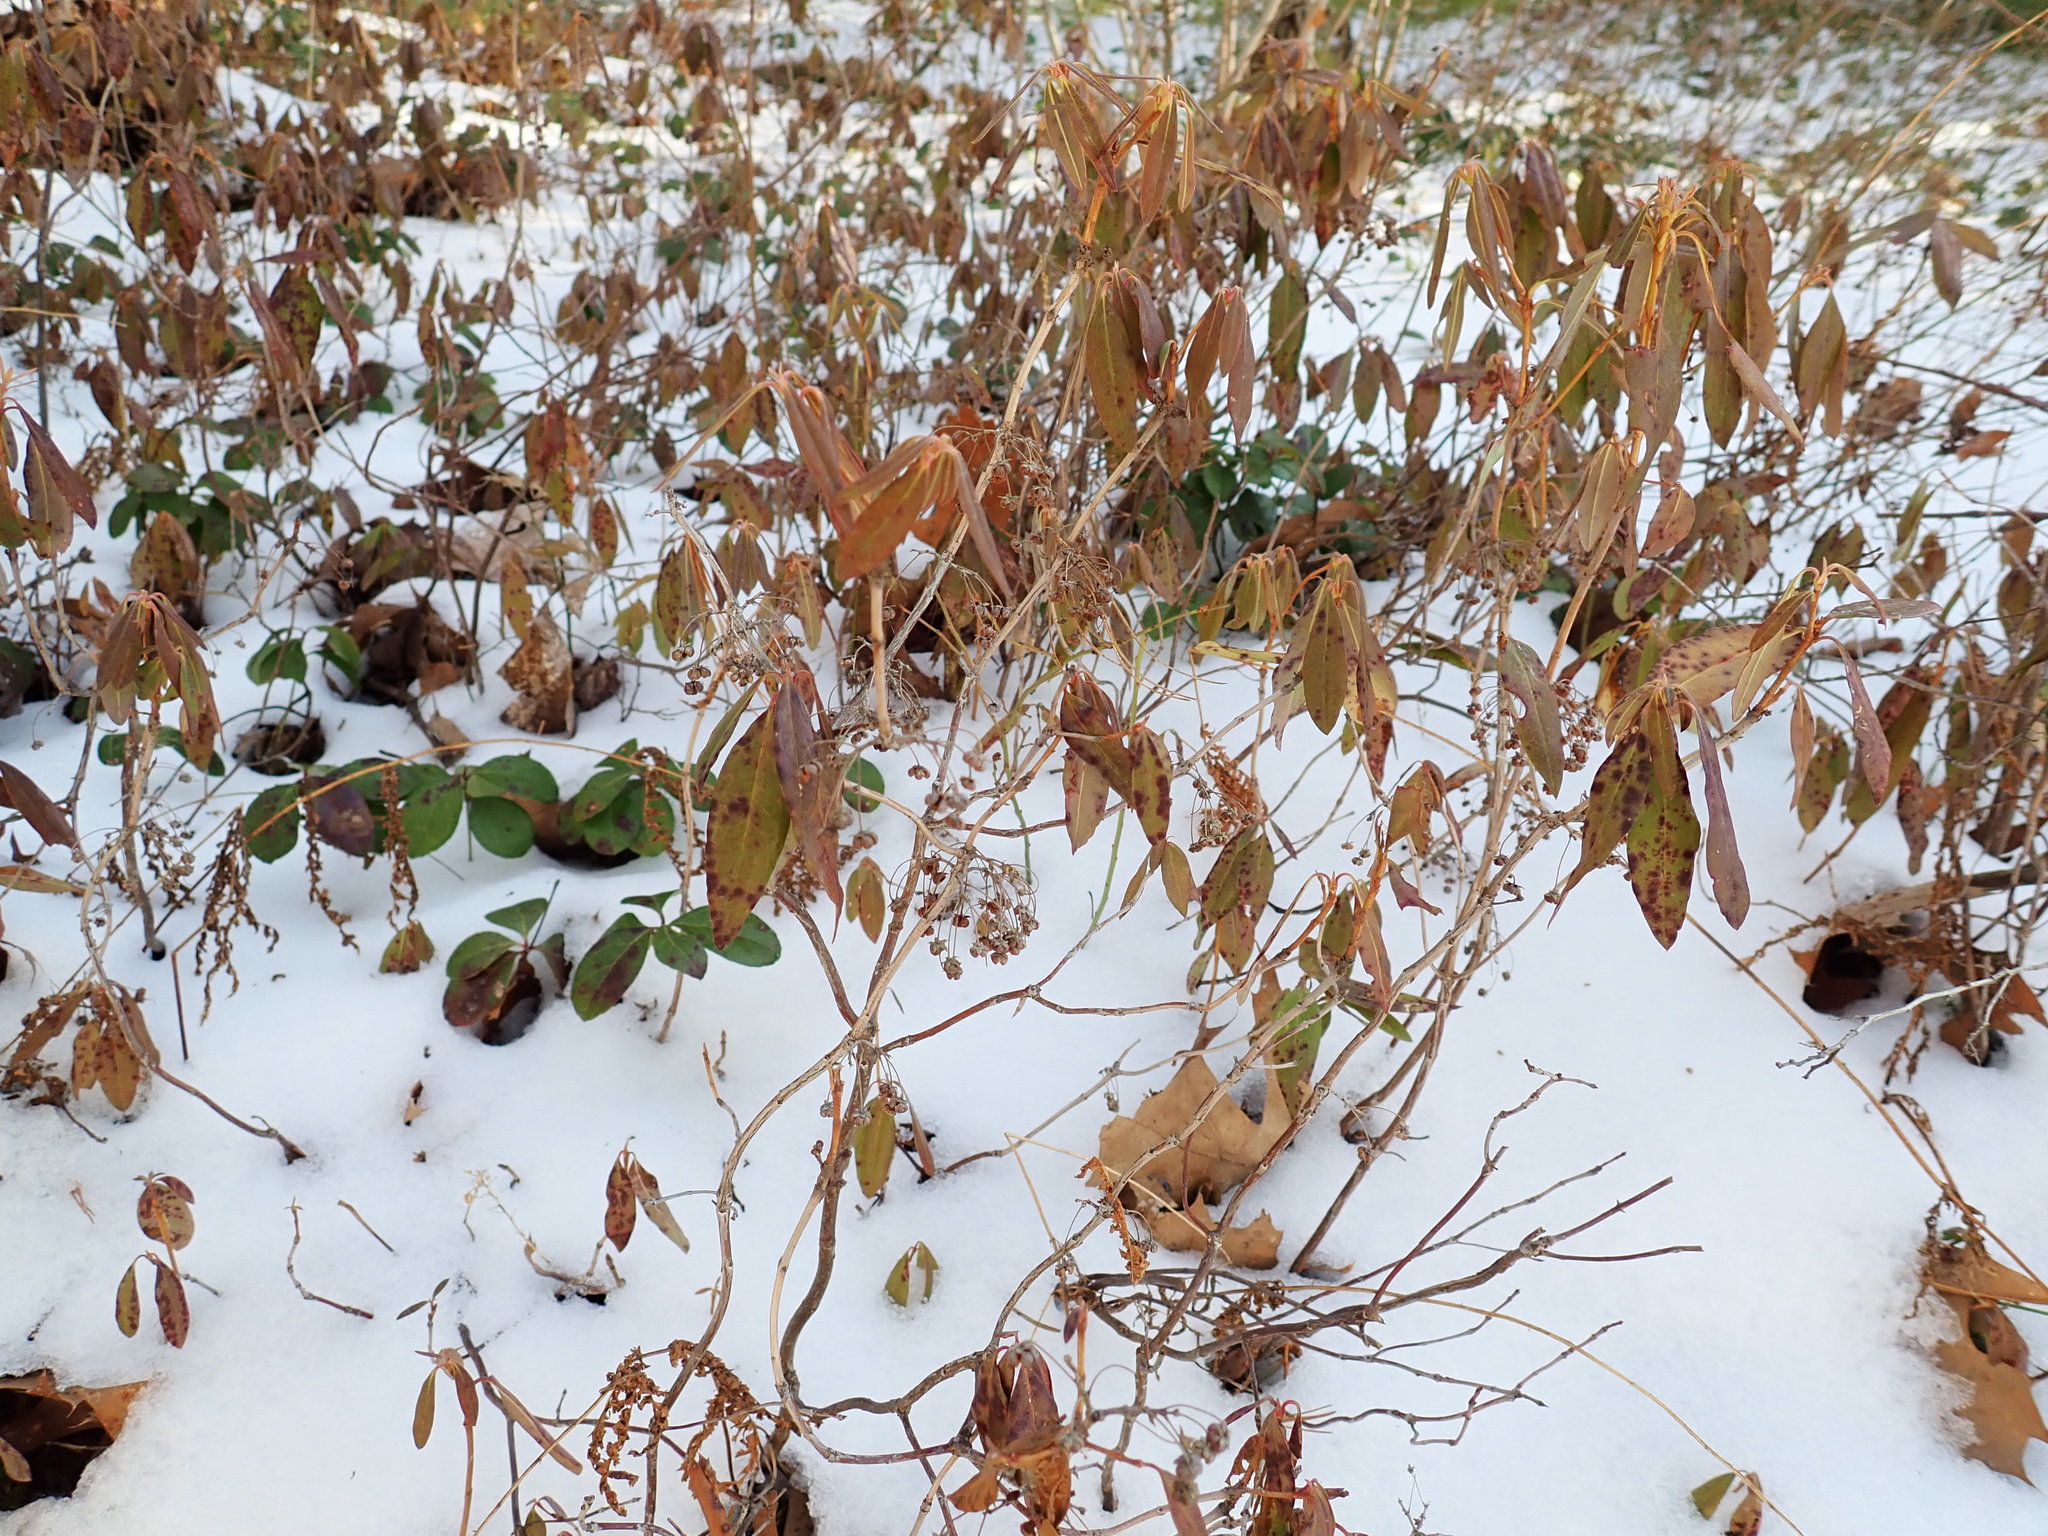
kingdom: Plantae
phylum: Tracheophyta
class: Magnoliopsida
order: Ericales
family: Ericaceae
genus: Kalmia
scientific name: Kalmia angustifolia
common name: Sheep-laurel
